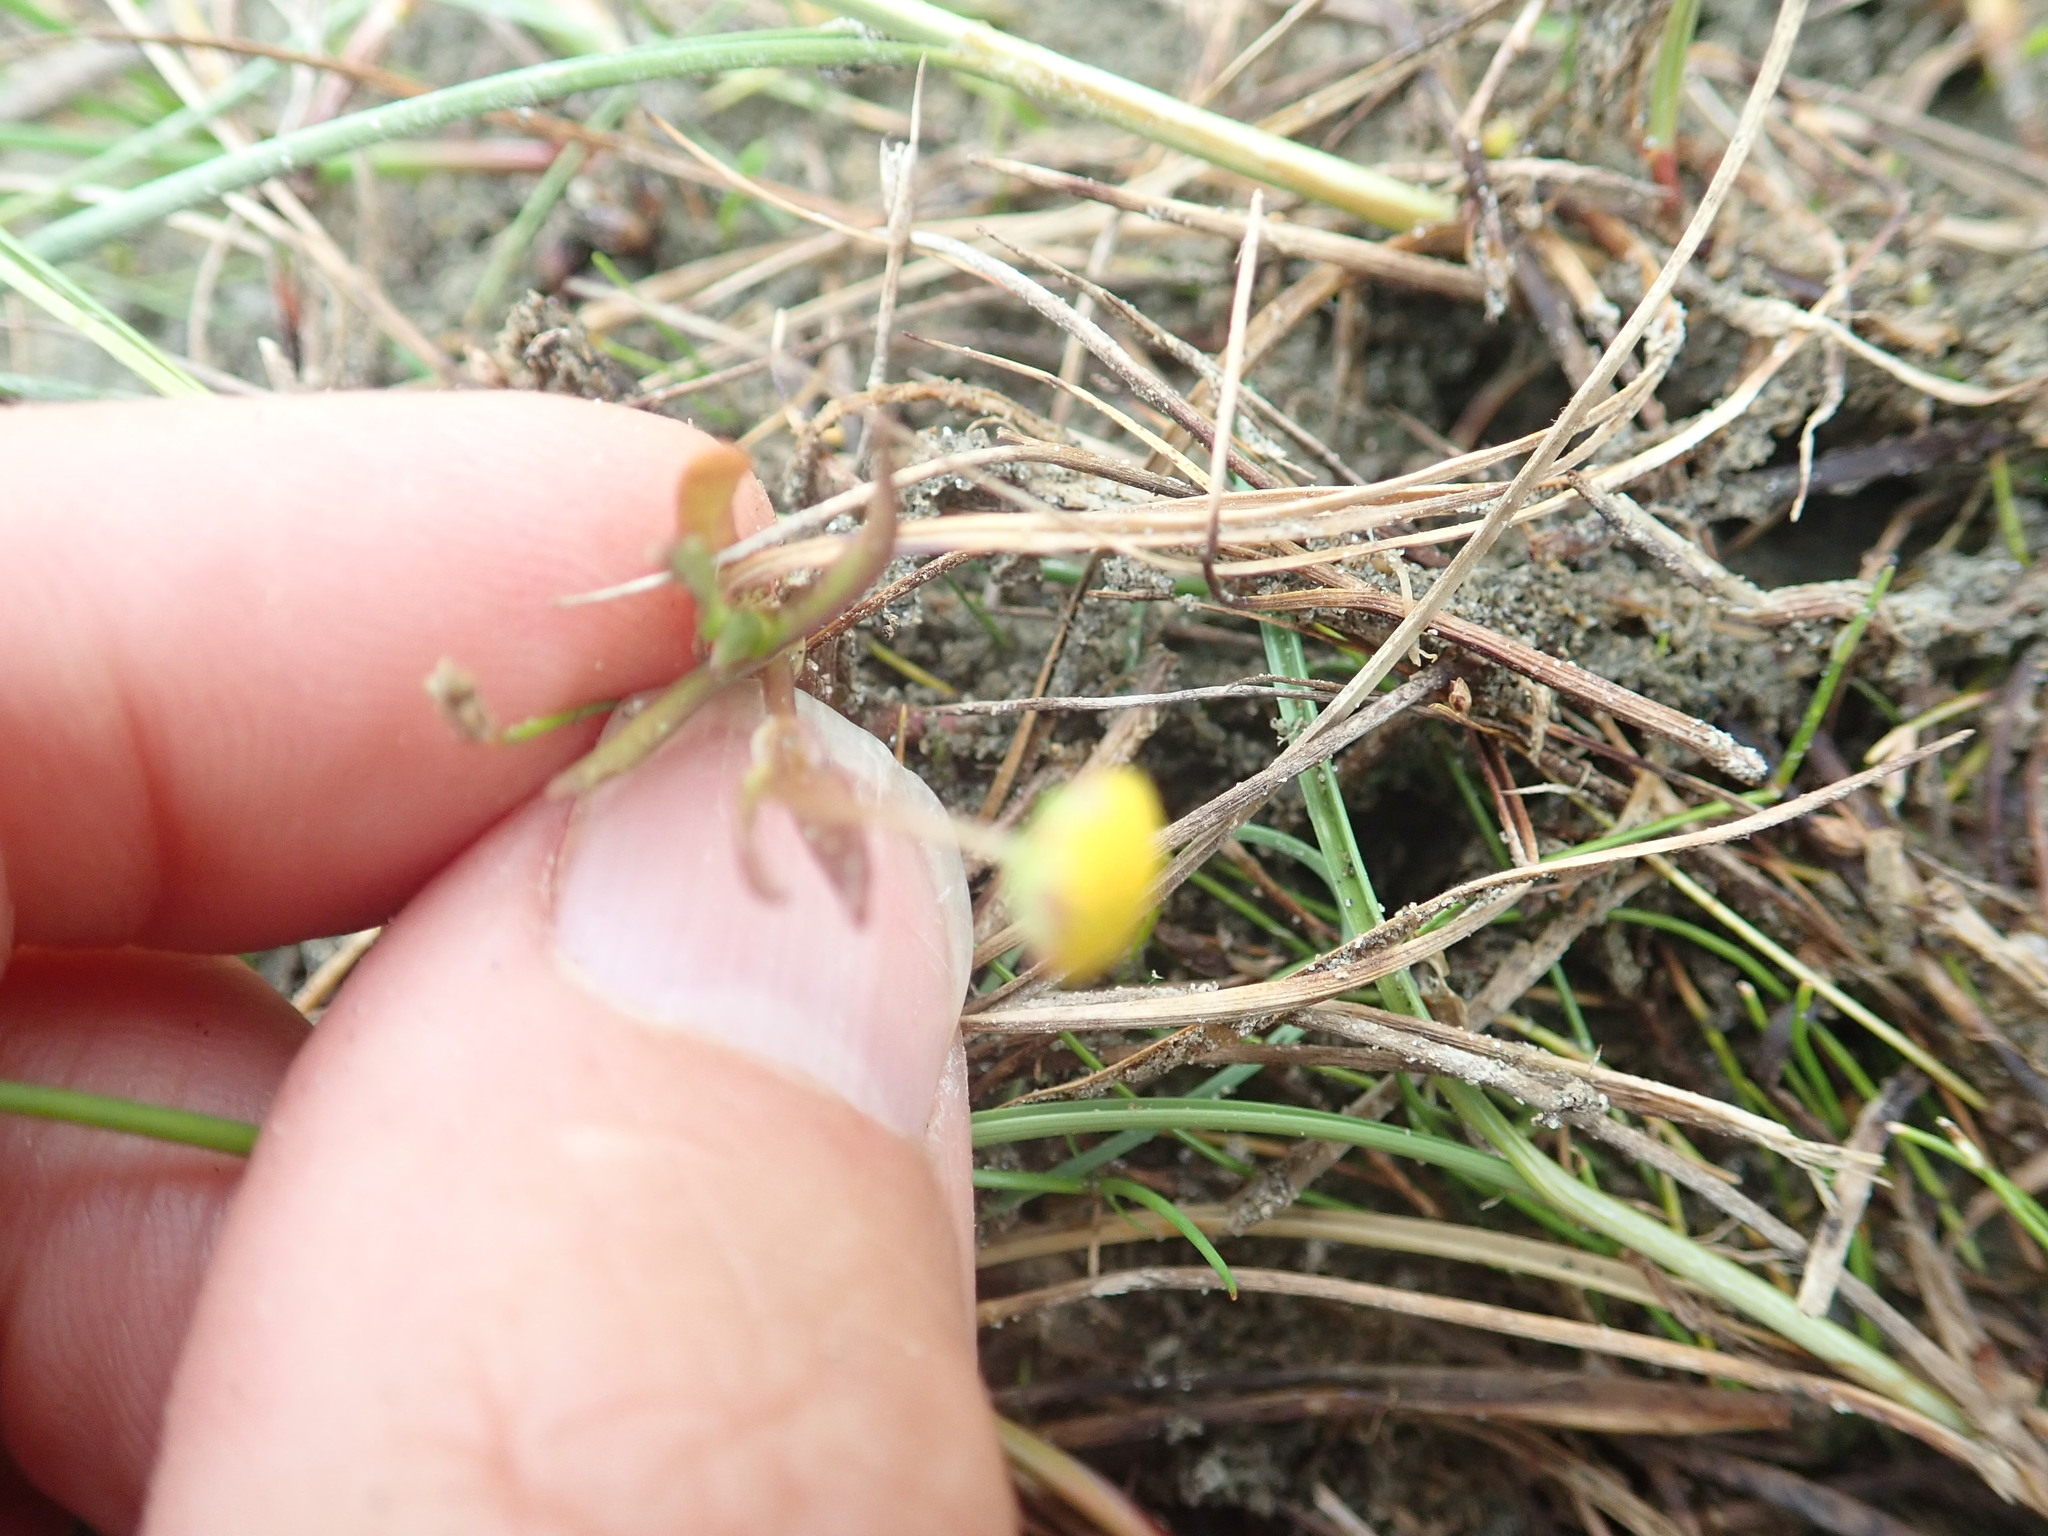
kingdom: Plantae
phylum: Tracheophyta
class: Magnoliopsida
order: Asterales
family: Asteraceae
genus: Cotula
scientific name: Cotula coronopifolia
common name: Buttonweed
